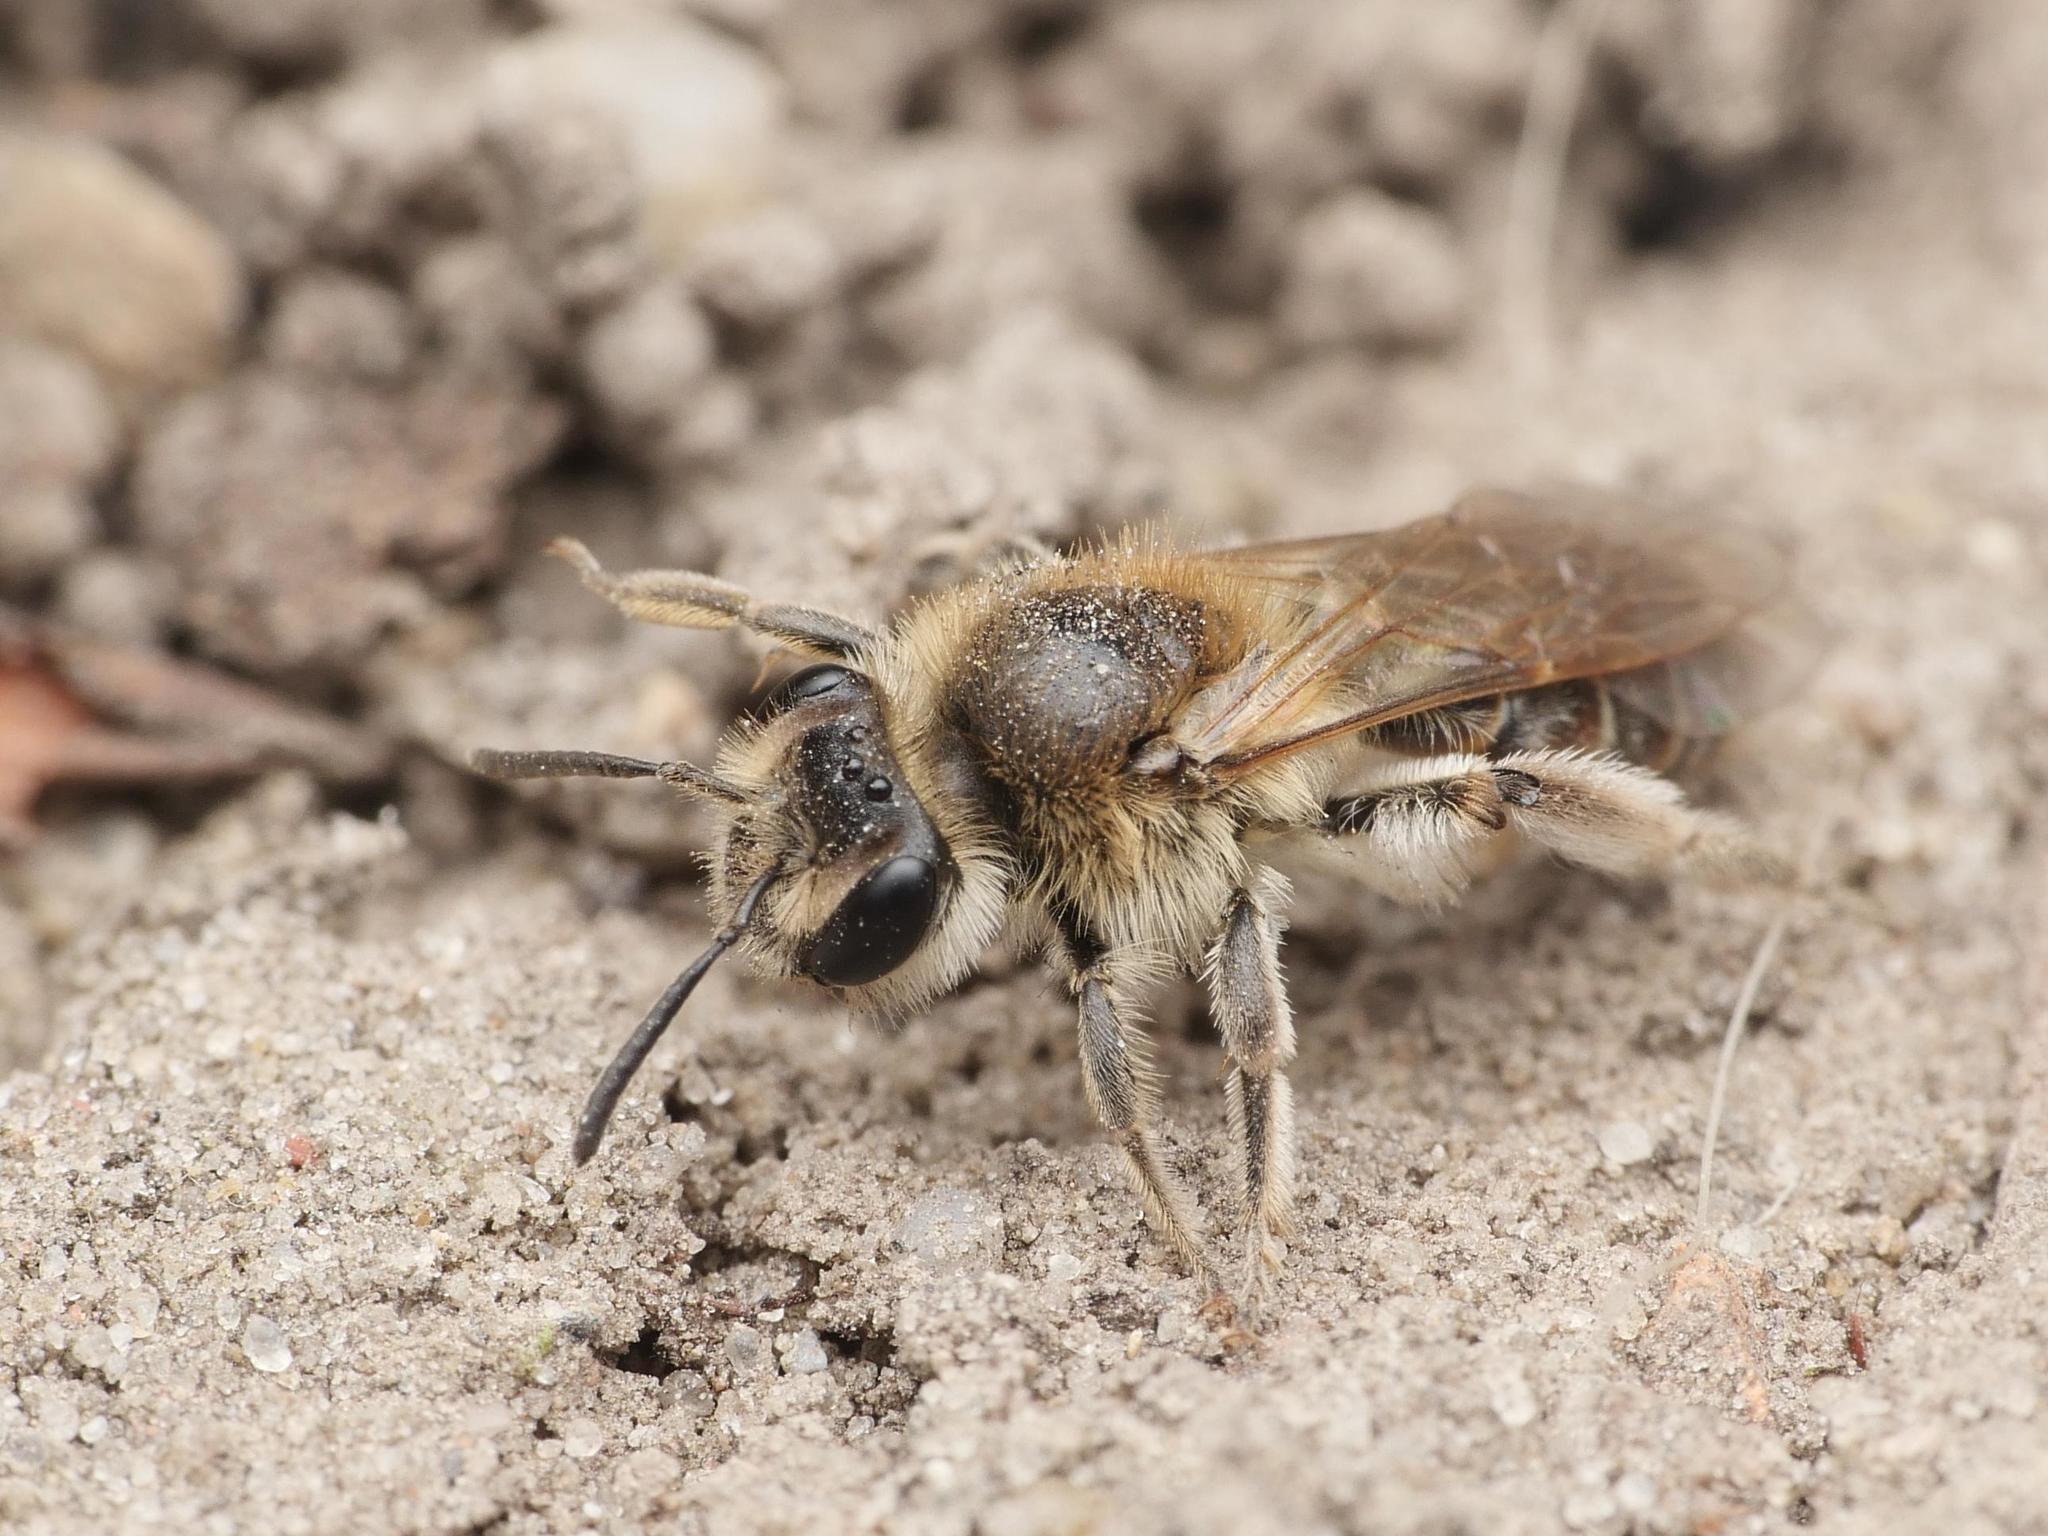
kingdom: Animalia
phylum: Arthropoda
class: Insecta
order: Hymenoptera
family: Andrenidae
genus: Andrena
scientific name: Andrena ventralis
